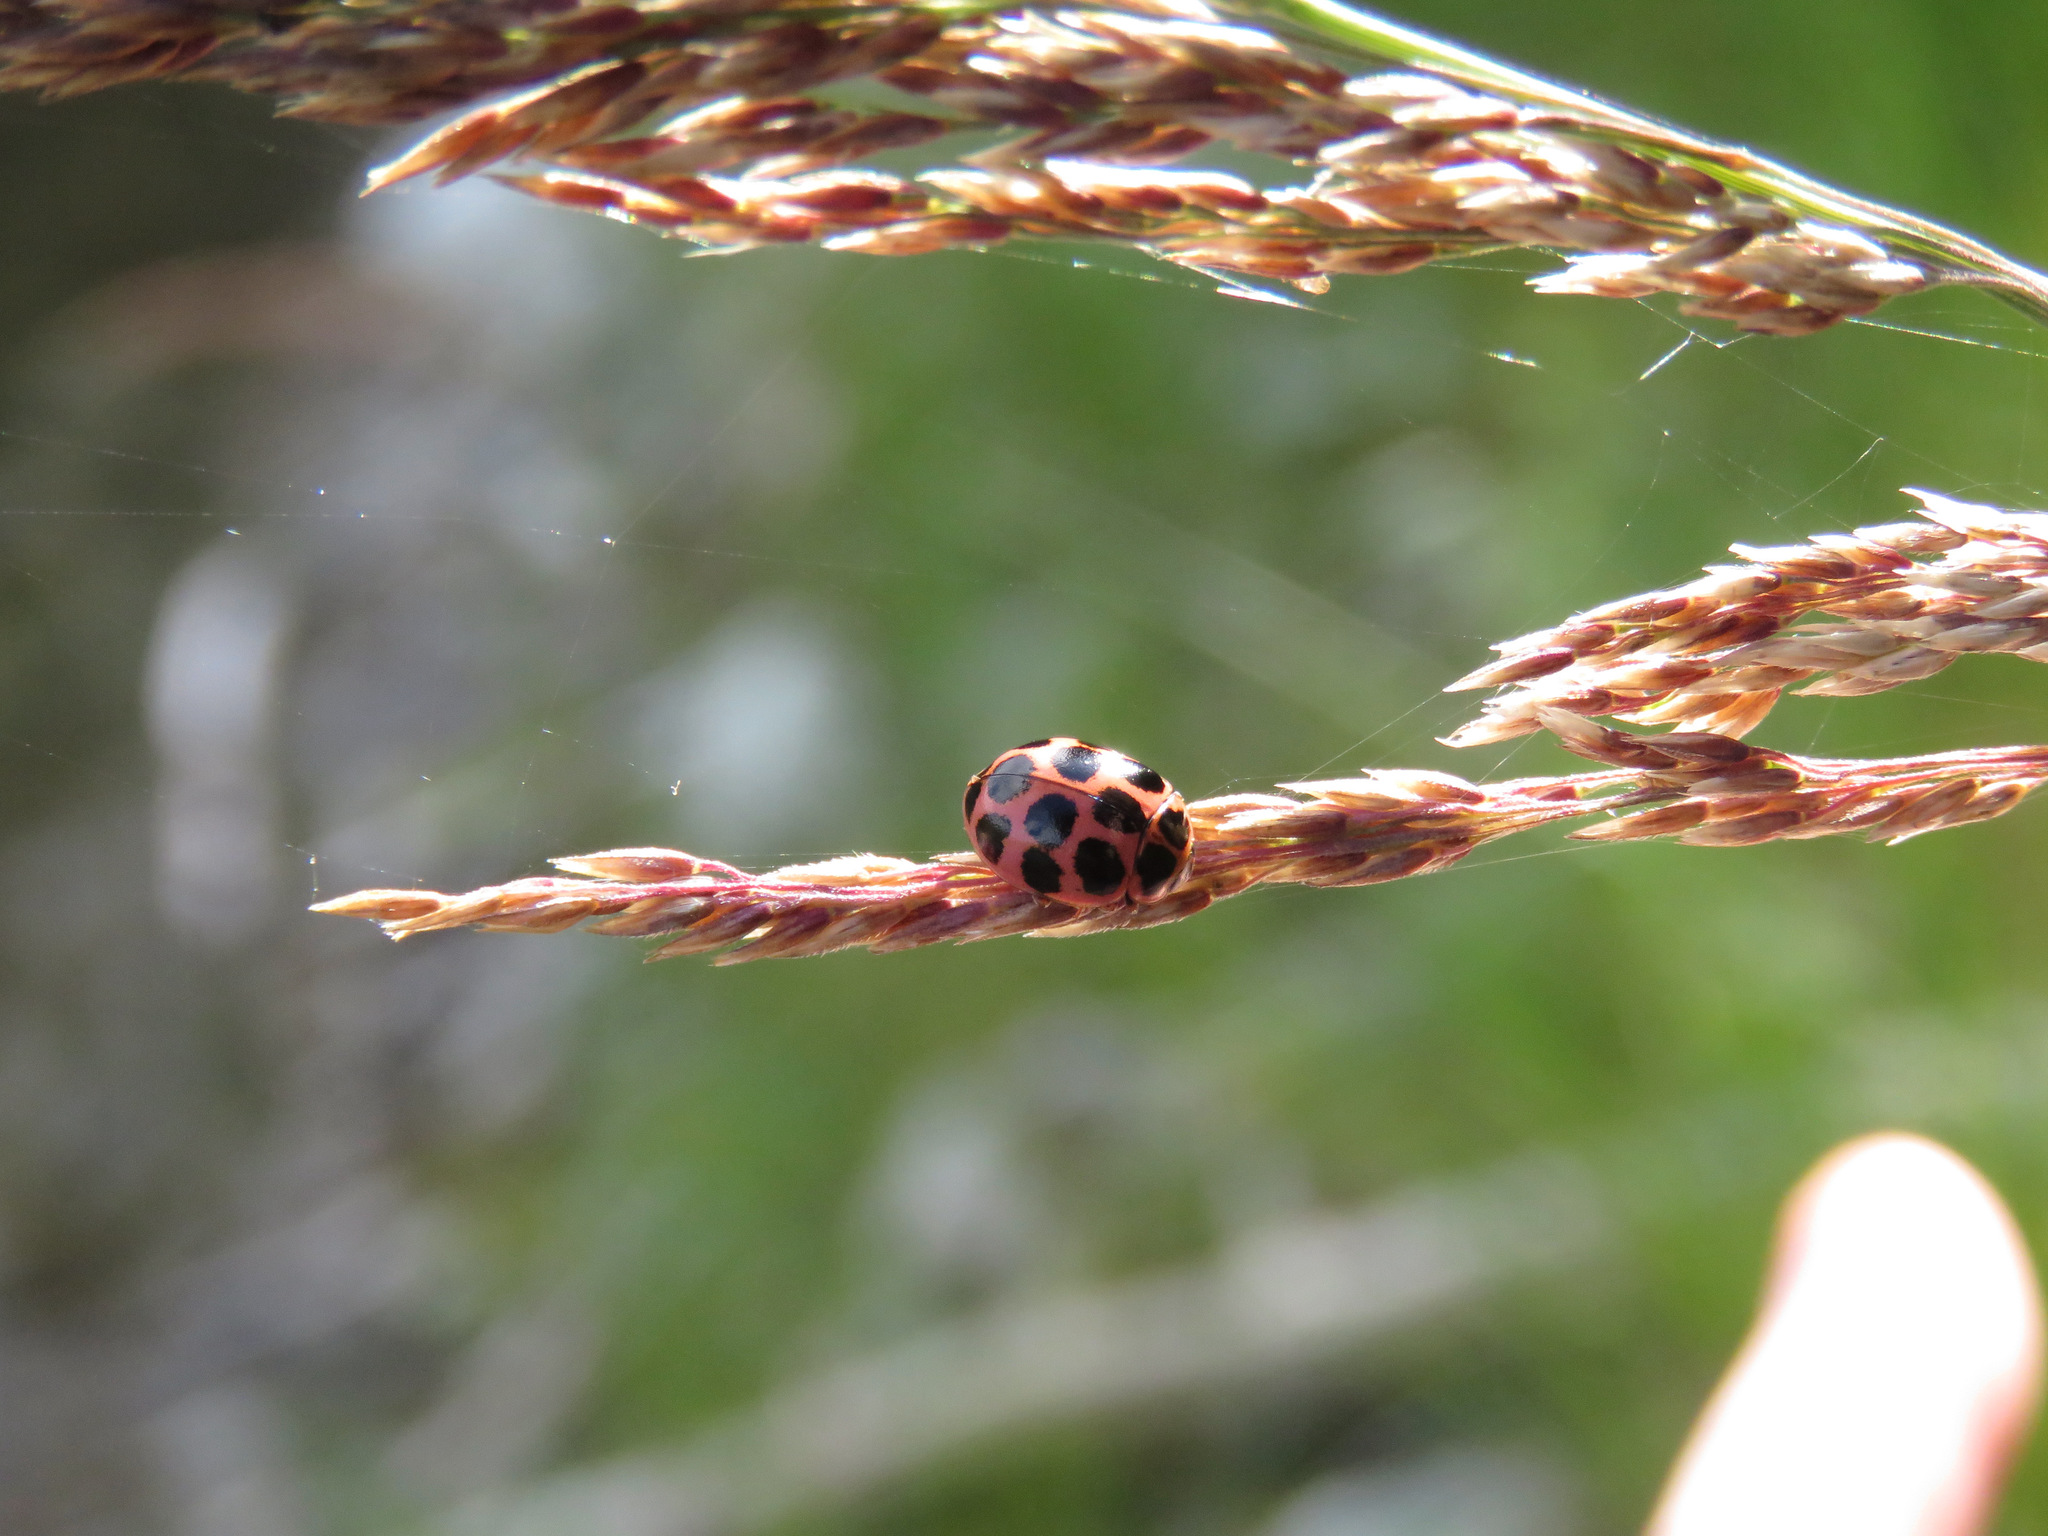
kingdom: Animalia
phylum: Arthropoda
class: Insecta
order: Coleoptera
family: Coccinellidae
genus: Calvia
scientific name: Calvia quatuordecimguttata
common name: Cream-spot ladybird
